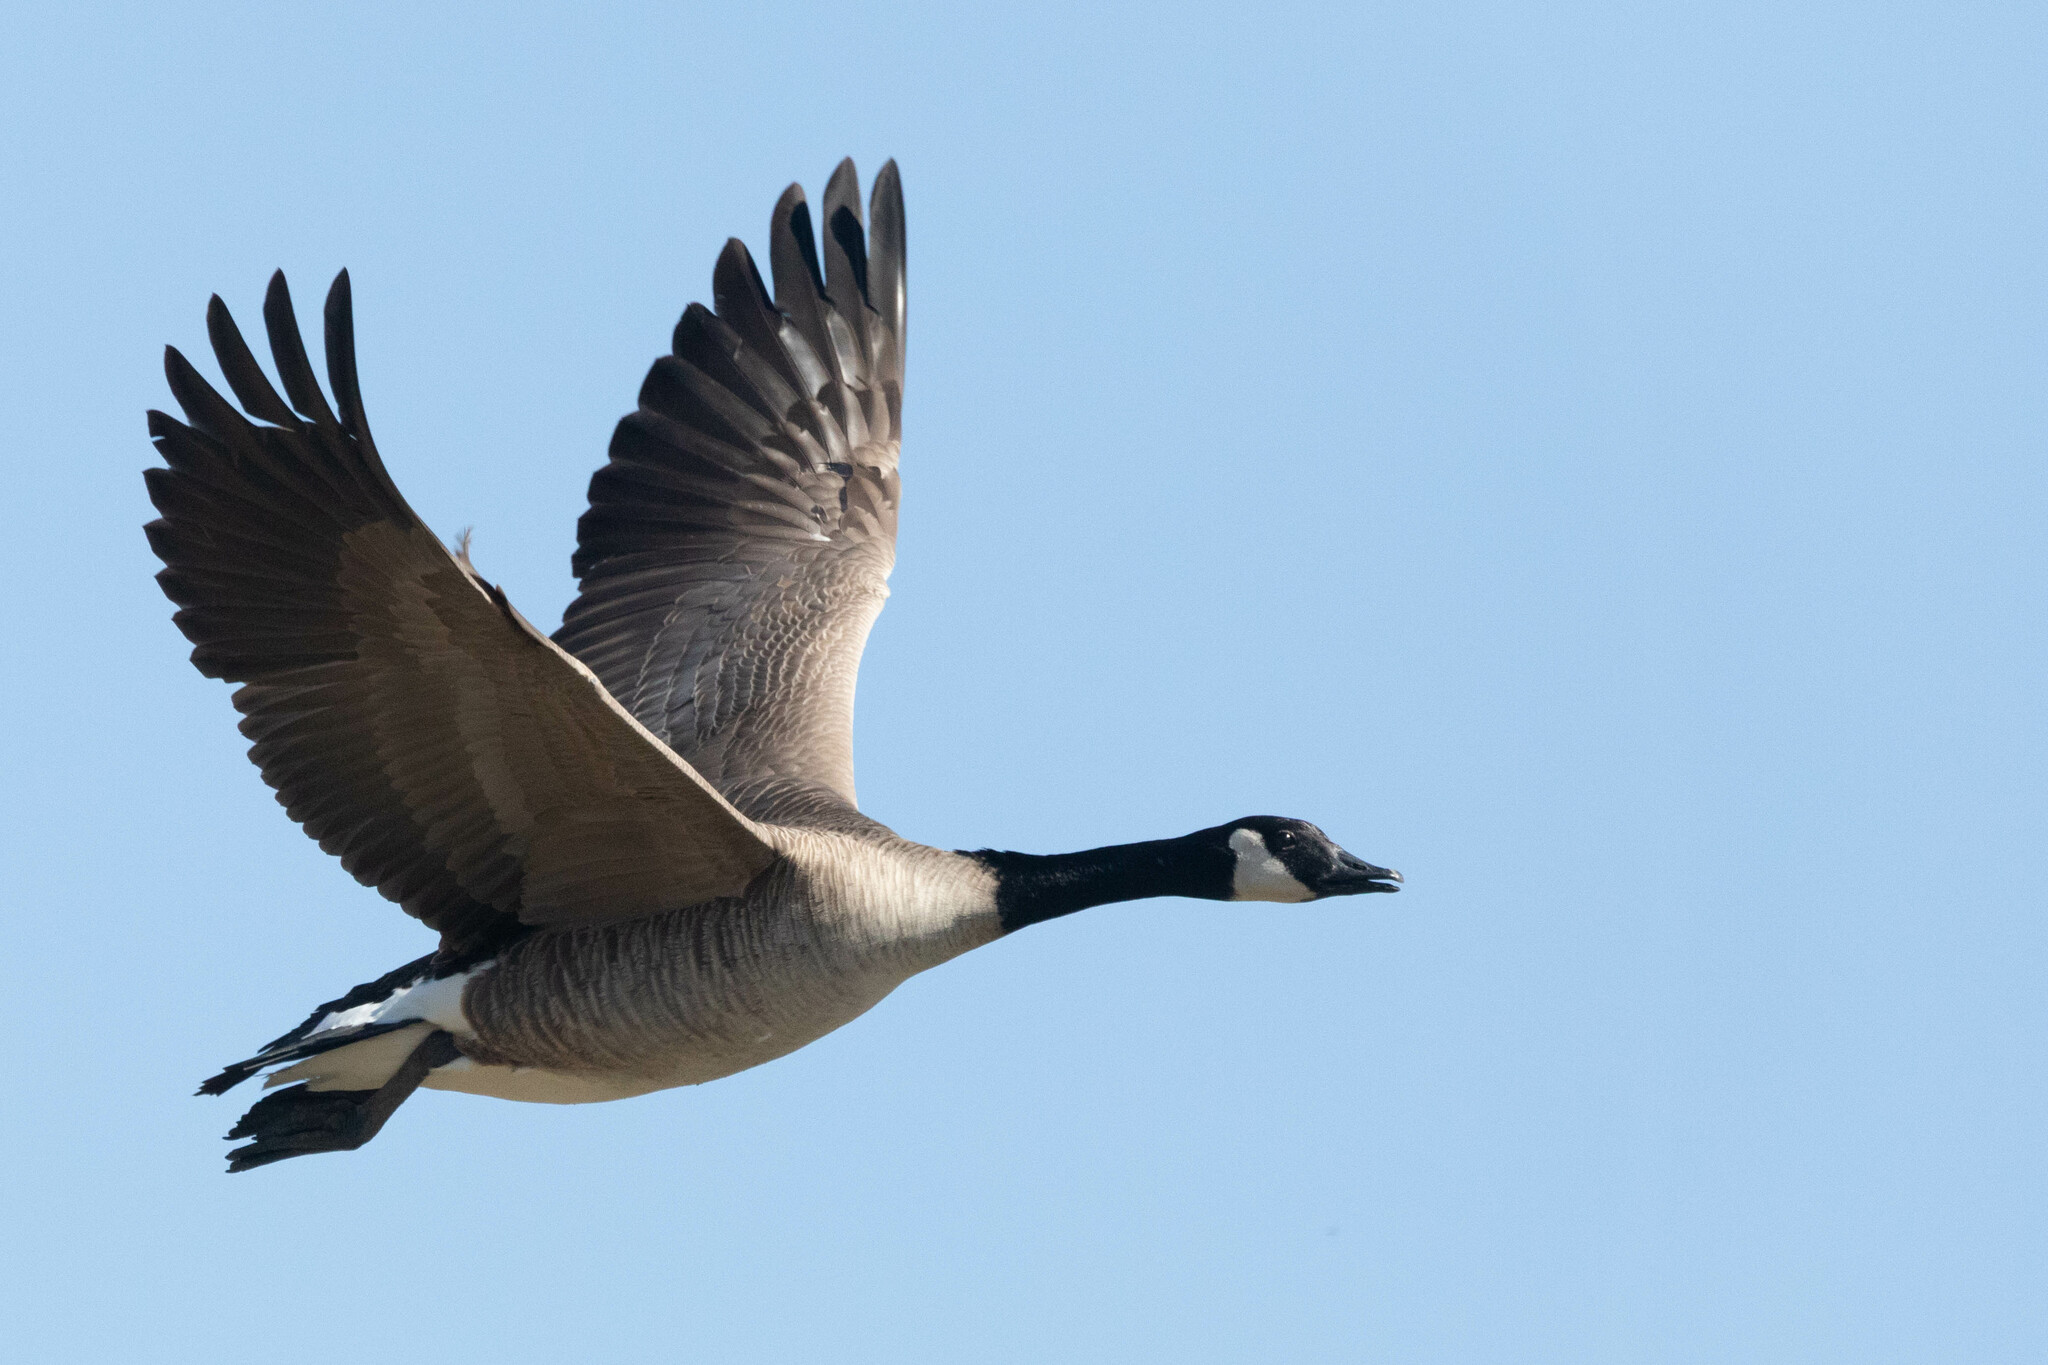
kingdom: Animalia
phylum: Chordata
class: Aves
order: Anseriformes
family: Anatidae
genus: Branta
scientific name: Branta canadensis
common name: Canada goose
